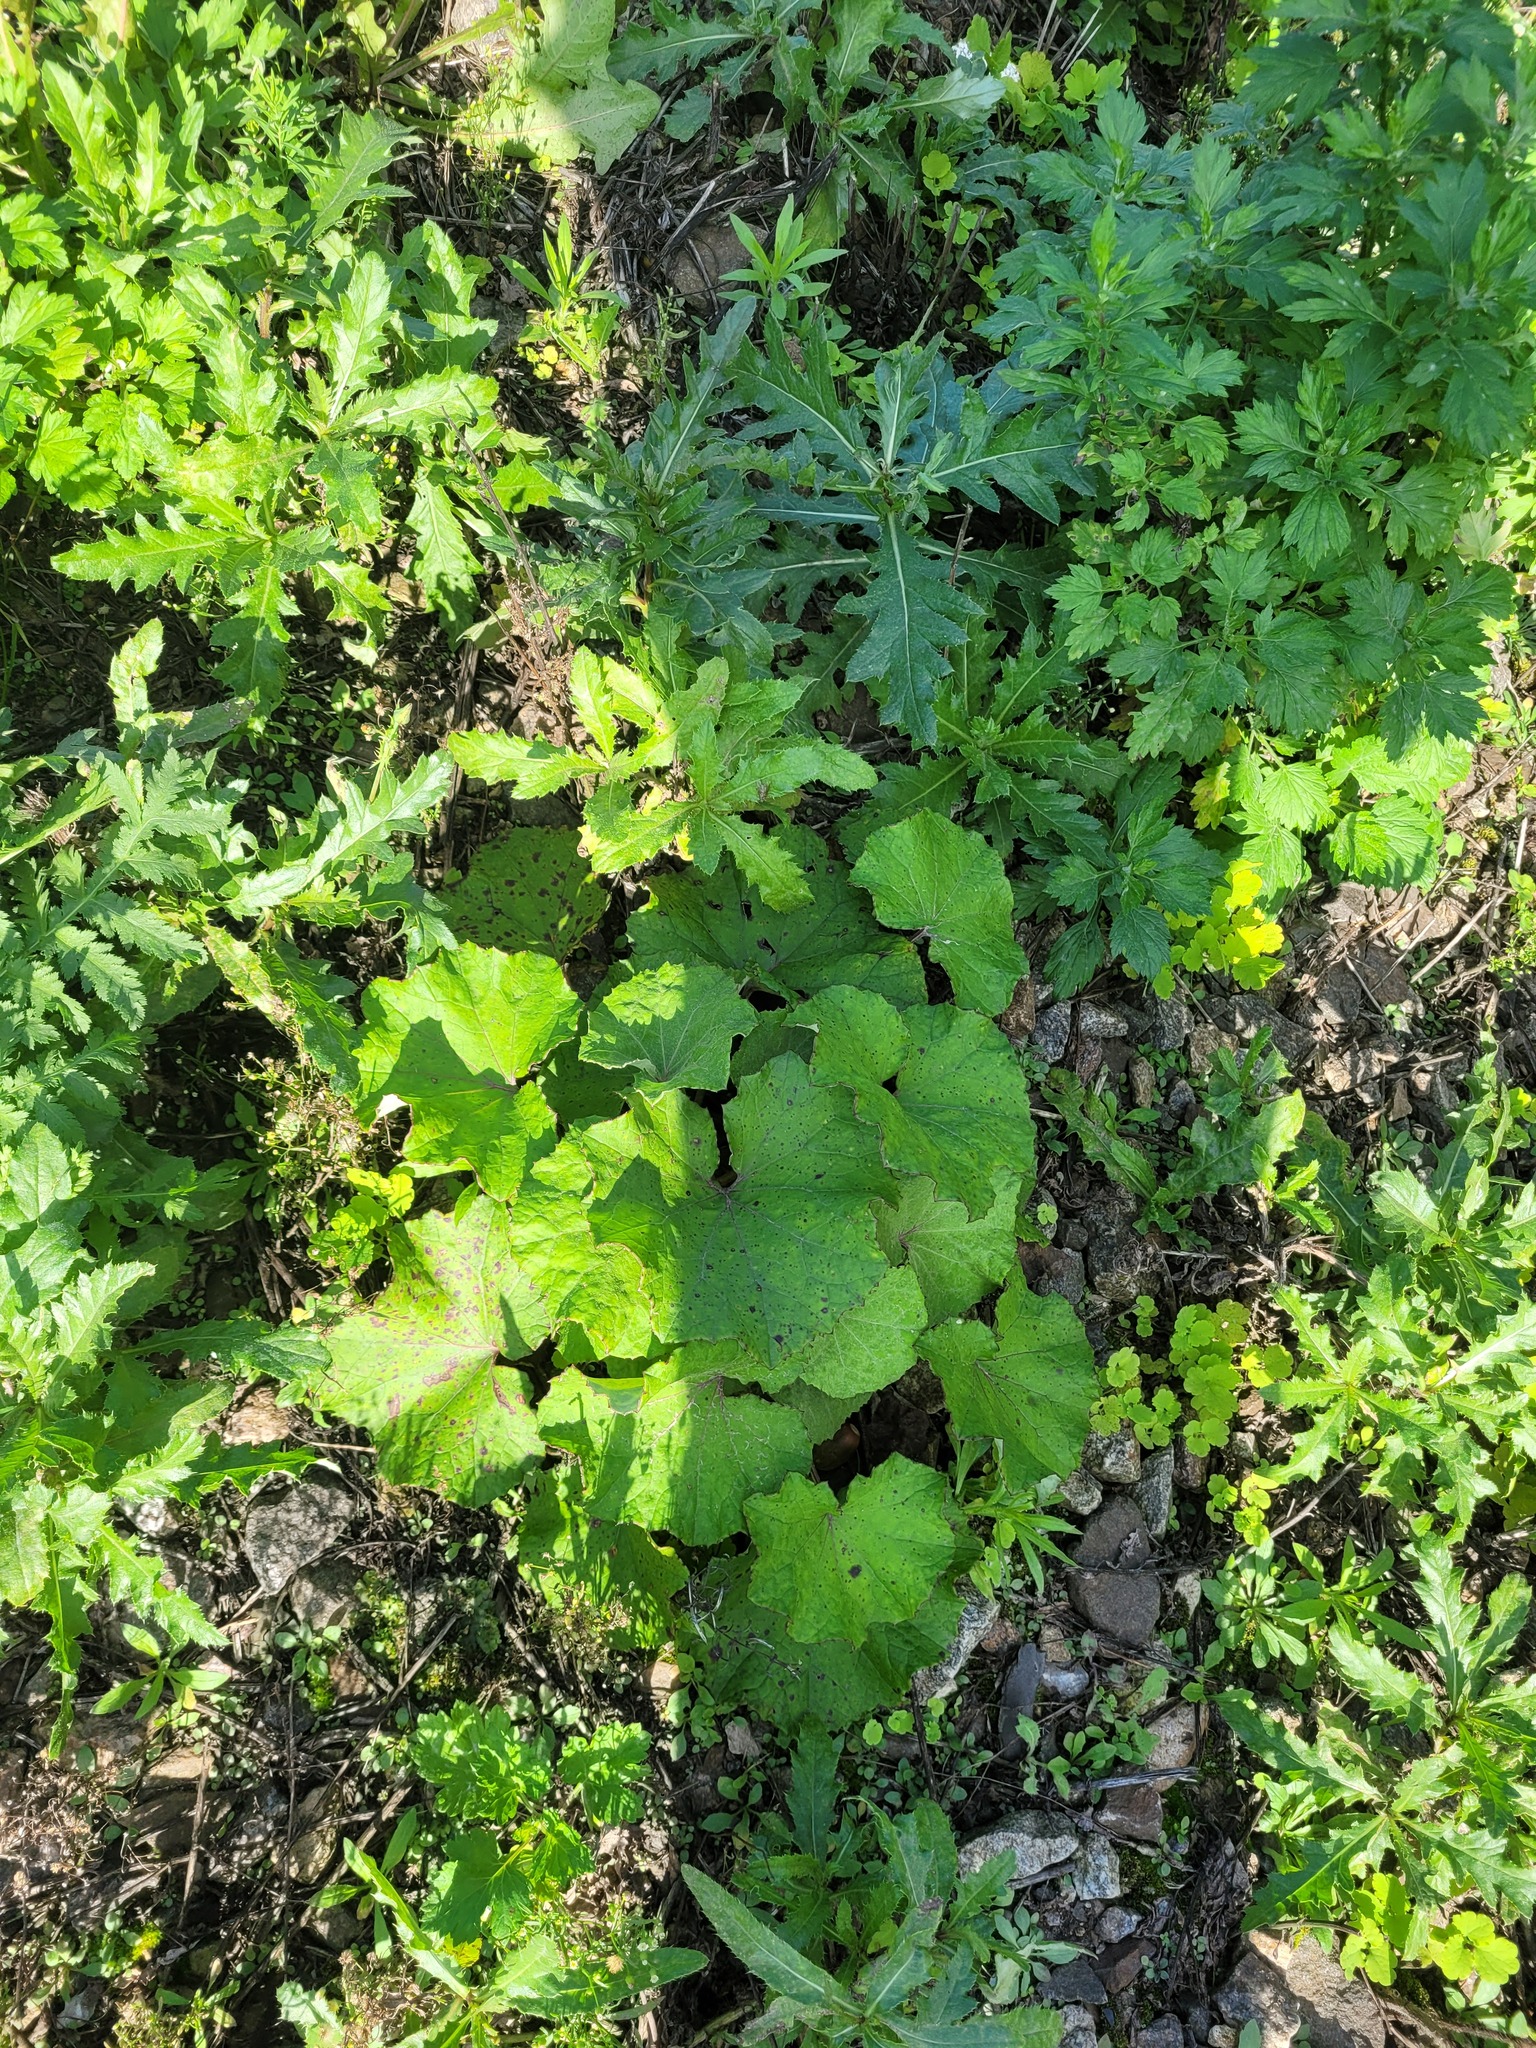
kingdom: Plantae
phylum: Tracheophyta
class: Magnoliopsida
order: Asterales
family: Asteraceae
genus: Tussilago
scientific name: Tussilago farfara
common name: Coltsfoot
